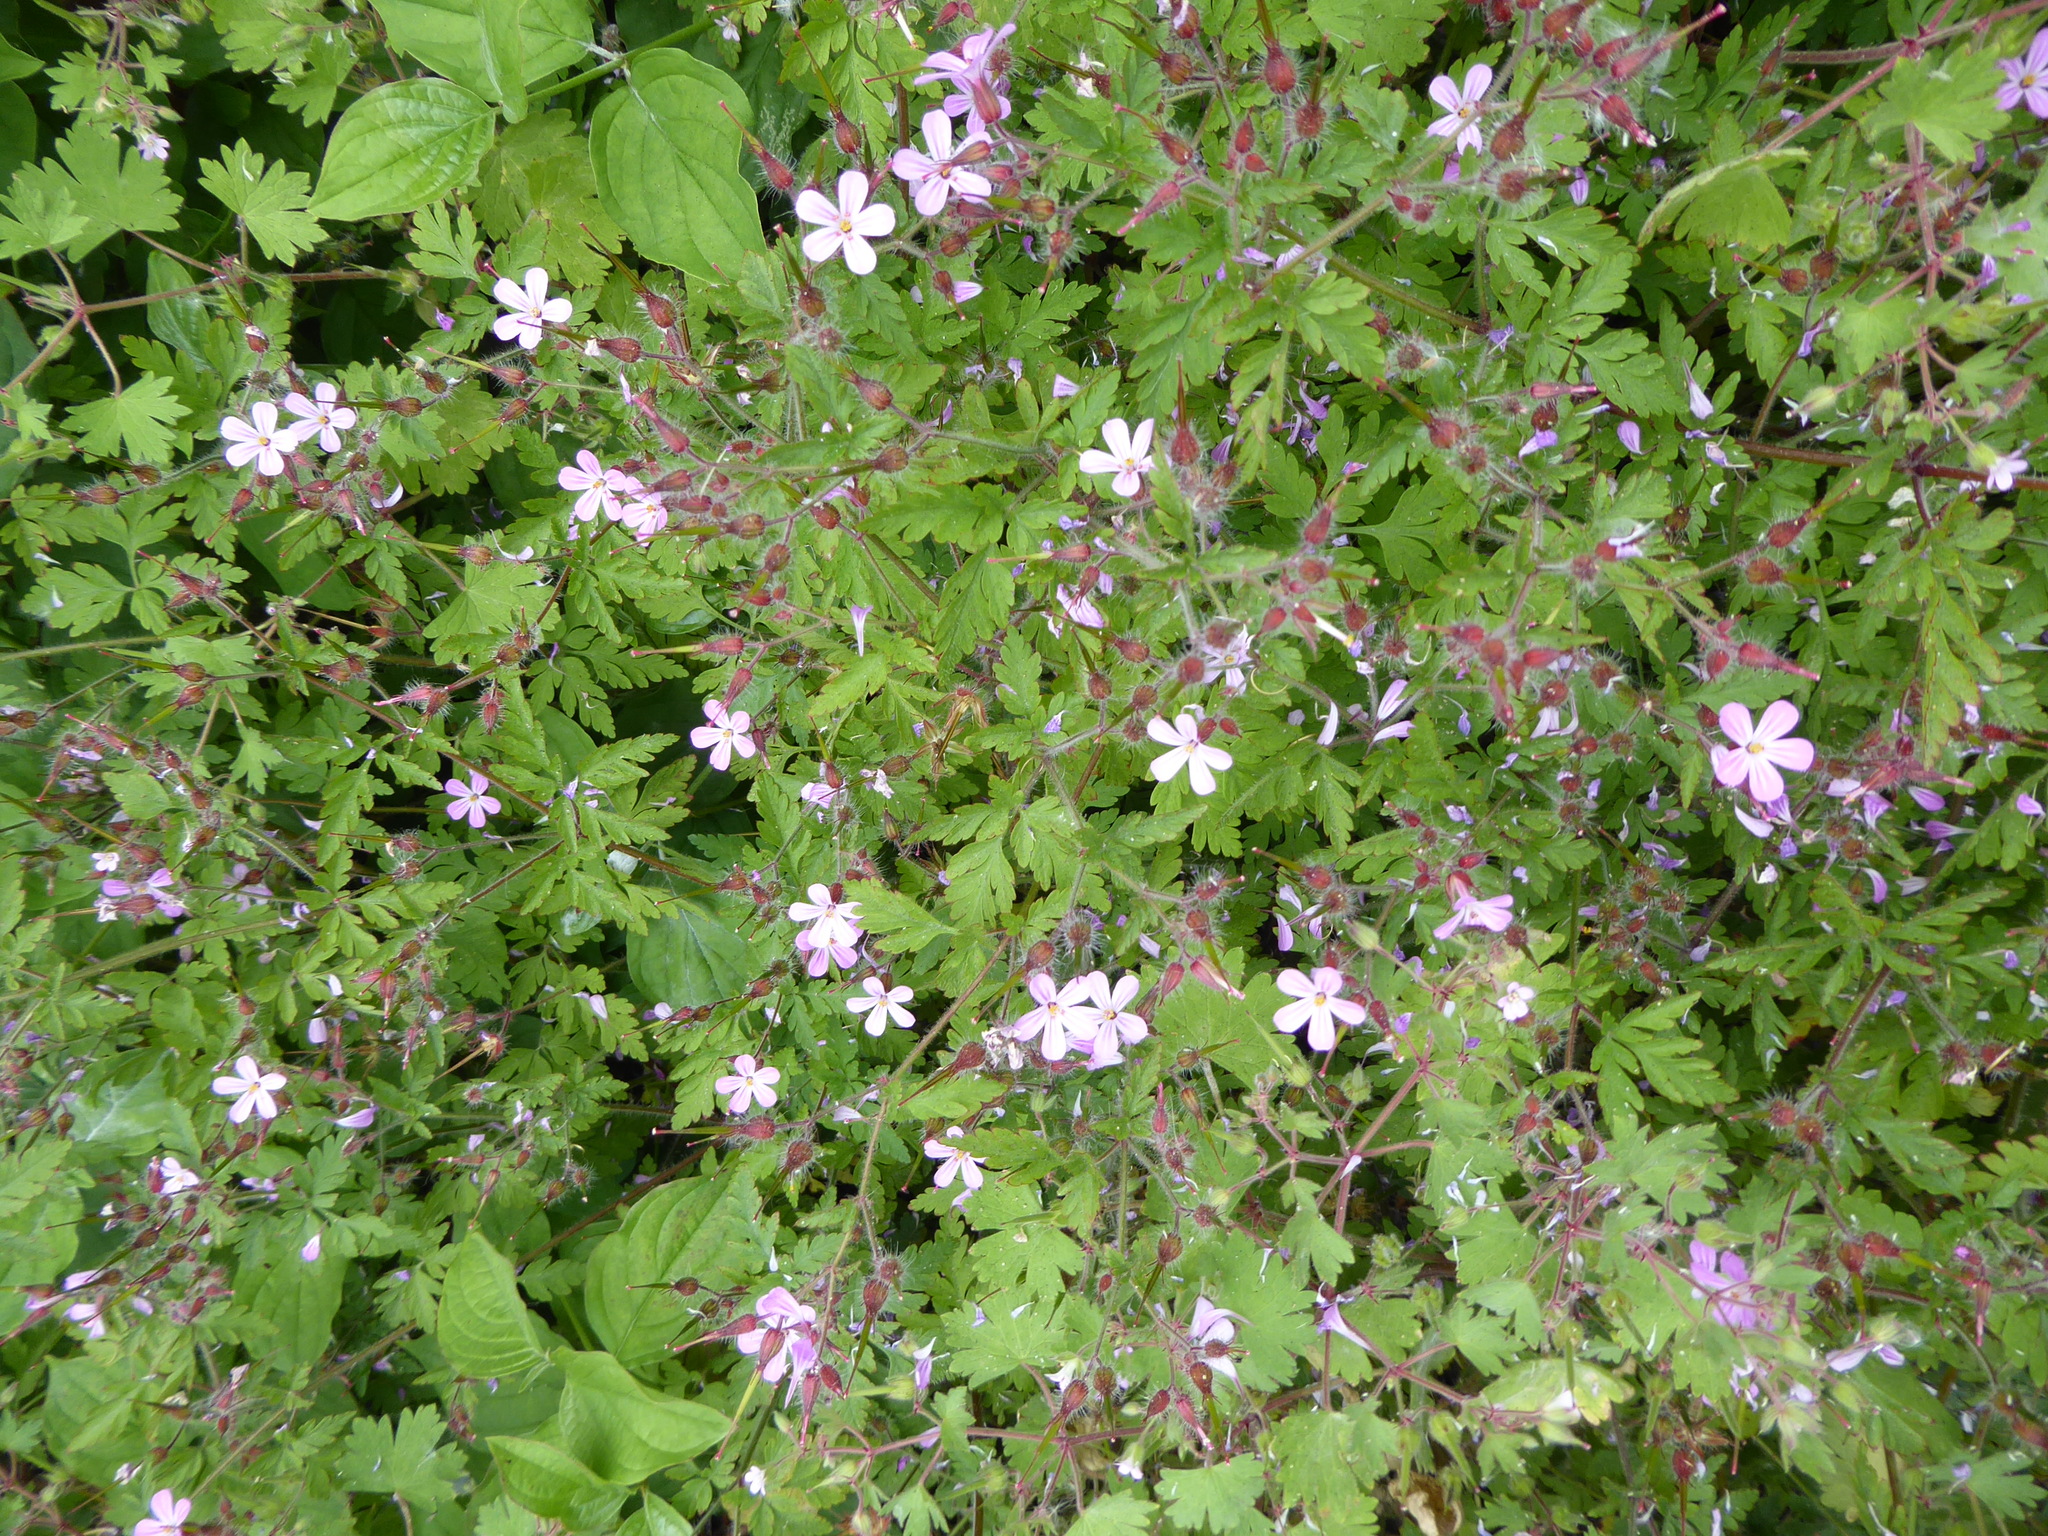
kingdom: Plantae
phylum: Tracheophyta
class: Magnoliopsida
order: Geraniales
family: Geraniaceae
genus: Geranium
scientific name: Geranium robertianum
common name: Herb-robert
